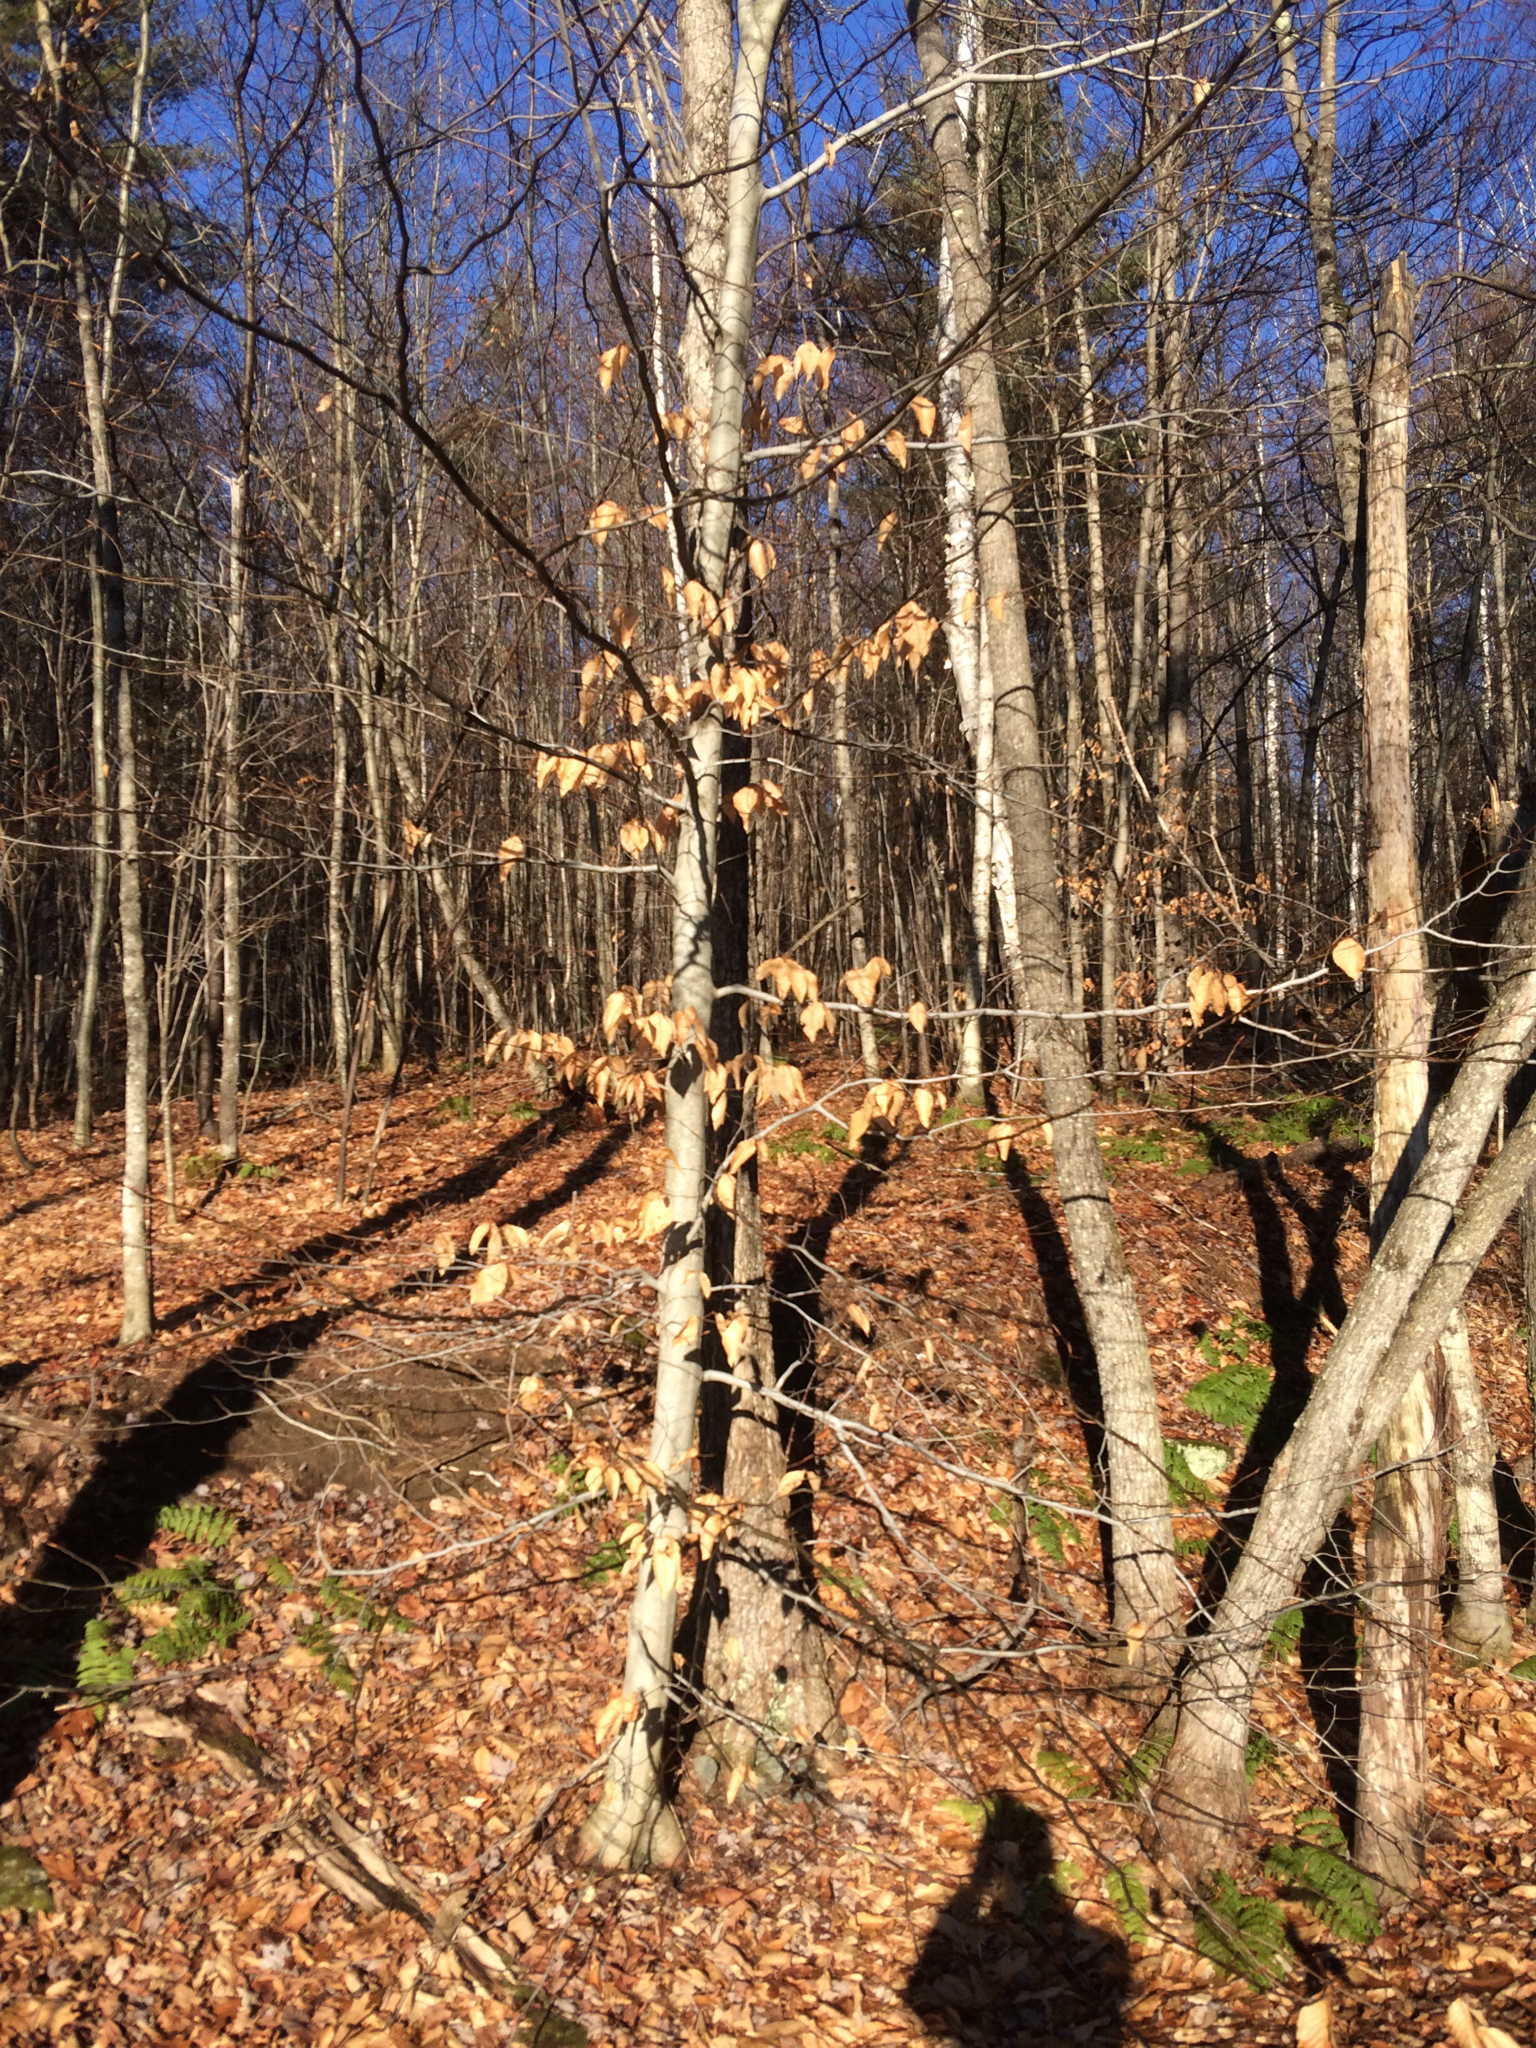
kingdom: Plantae
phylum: Tracheophyta
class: Magnoliopsida
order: Fagales
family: Fagaceae
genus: Fagus
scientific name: Fagus grandifolia
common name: American beech
